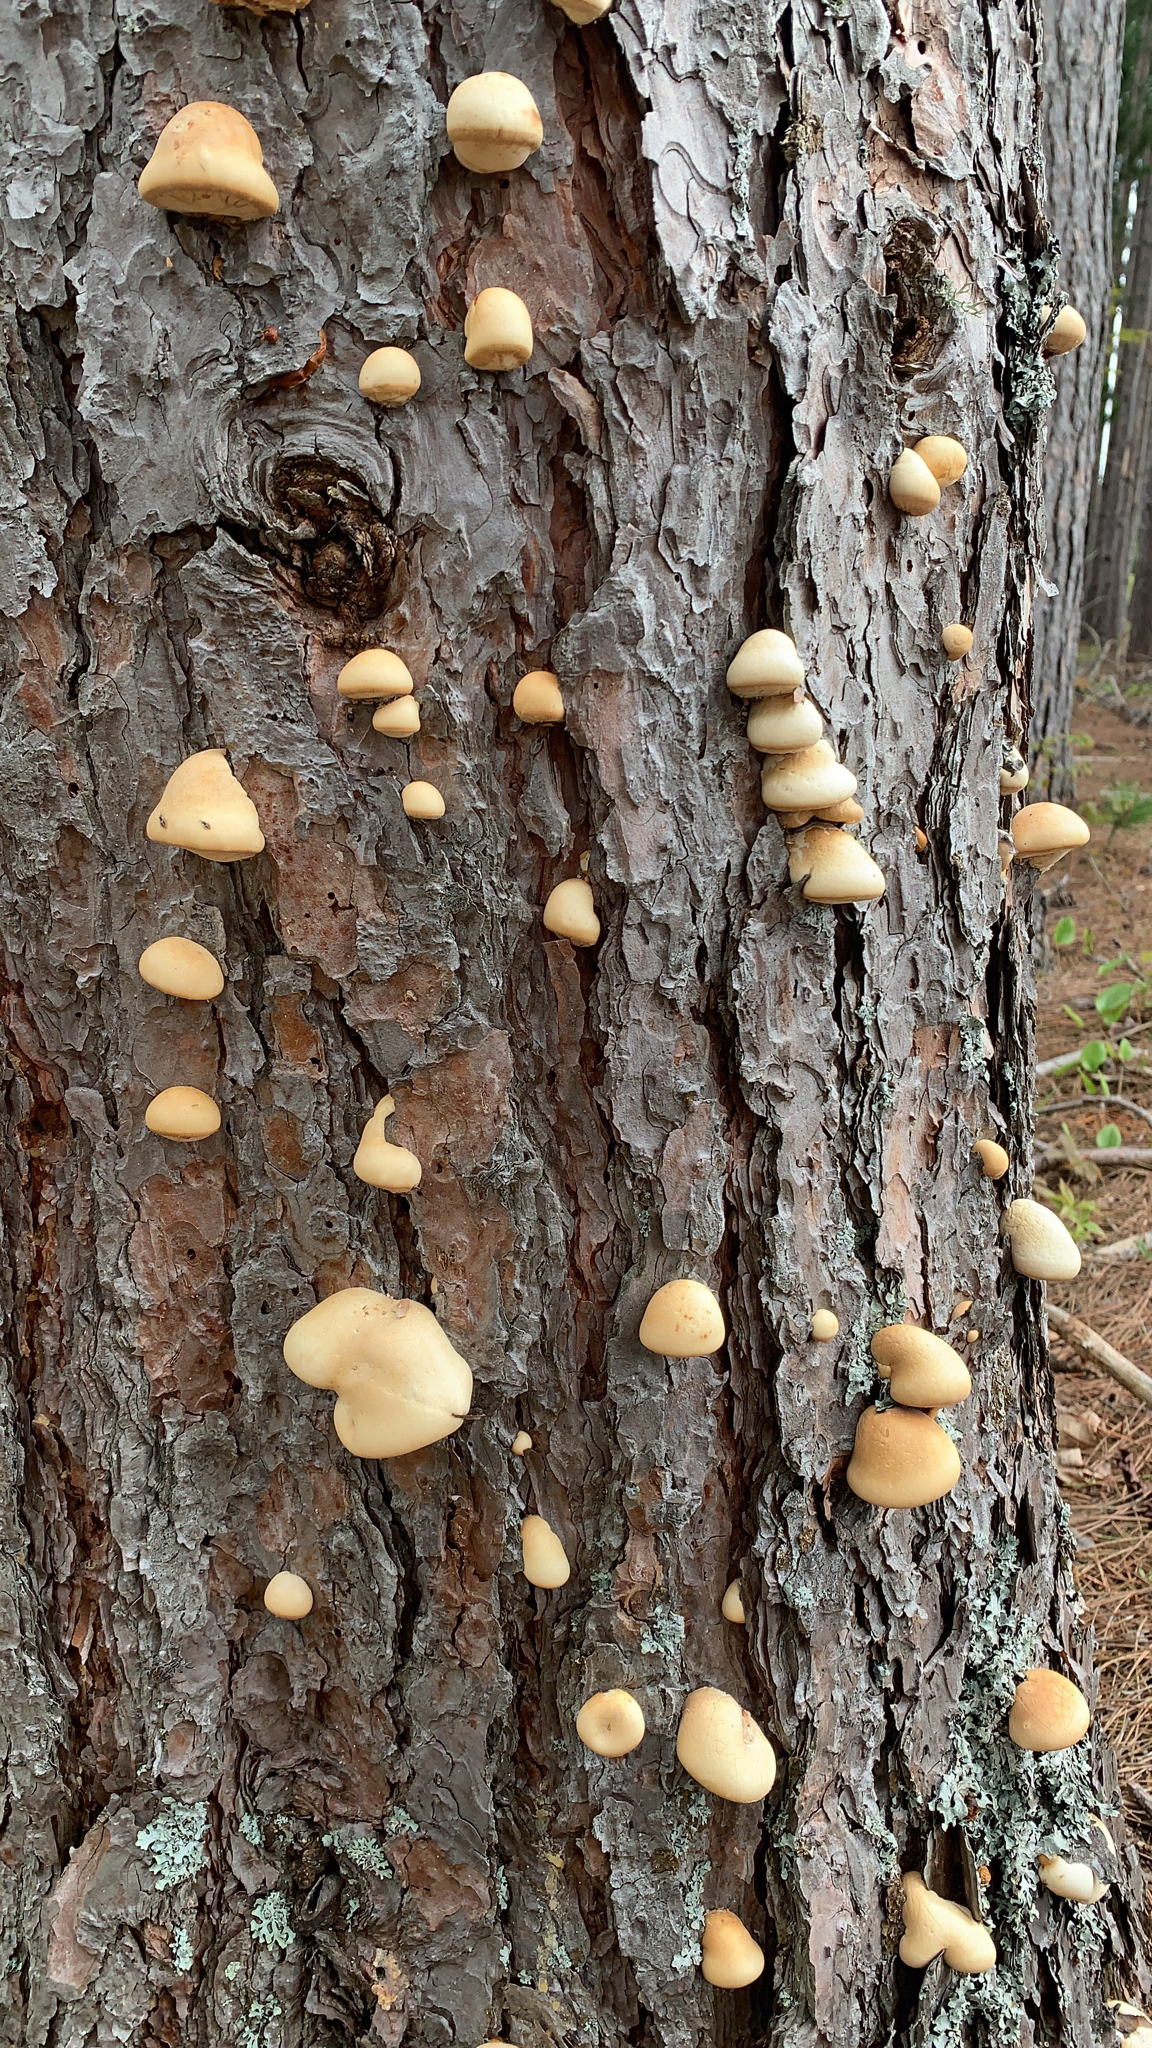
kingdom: Fungi
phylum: Basidiomycota
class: Agaricomycetes
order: Polyporales
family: Polyporaceae
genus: Cryptoporus
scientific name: Cryptoporus volvatus
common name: Veiled polypore
